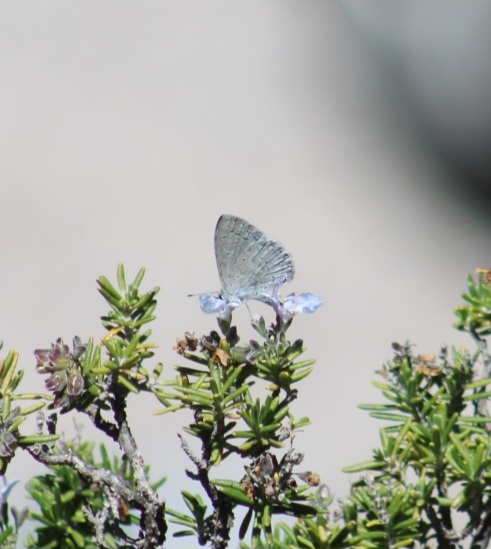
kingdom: Animalia
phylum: Arthropoda
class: Insecta
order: Lepidoptera
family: Lycaenidae
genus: Celastrina
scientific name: Celastrina ladon
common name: Spring azure
